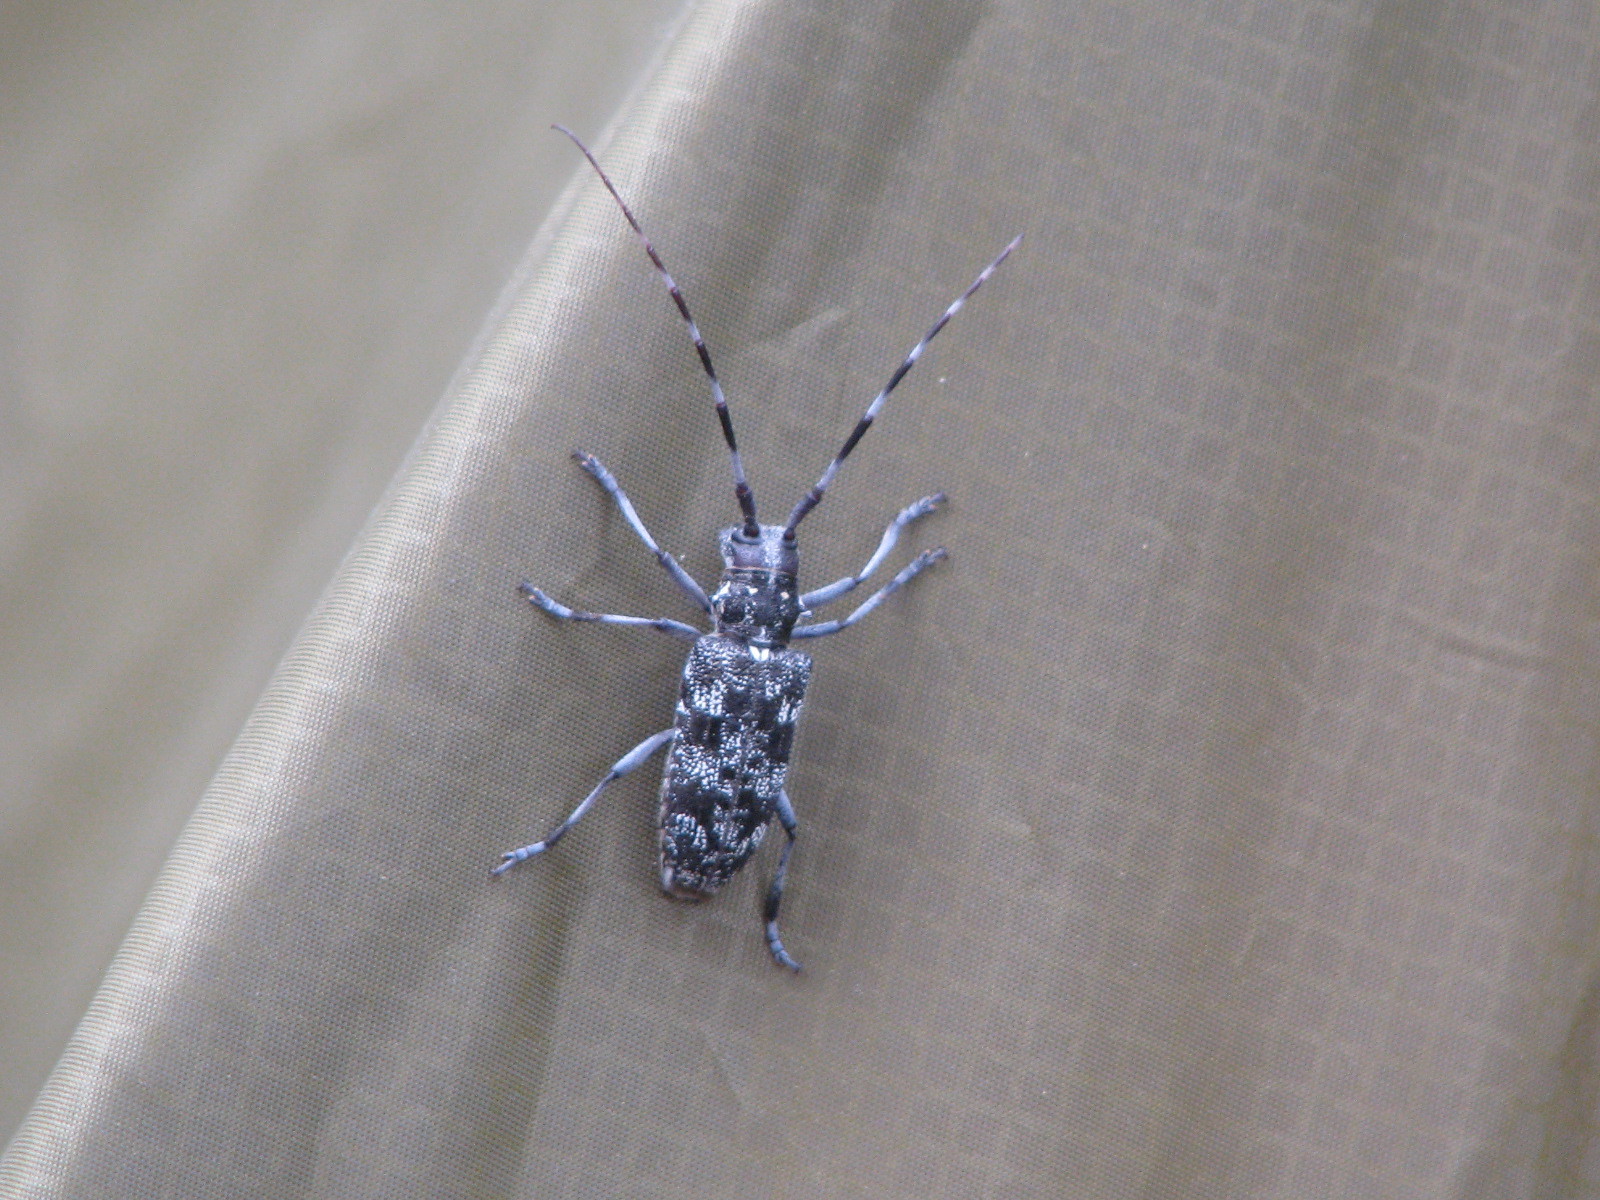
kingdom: Animalia
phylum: Arthropoda
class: Insecta
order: Coleoptera
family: Cerambycidae
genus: Monochamus
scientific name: Monochamus obtusus
